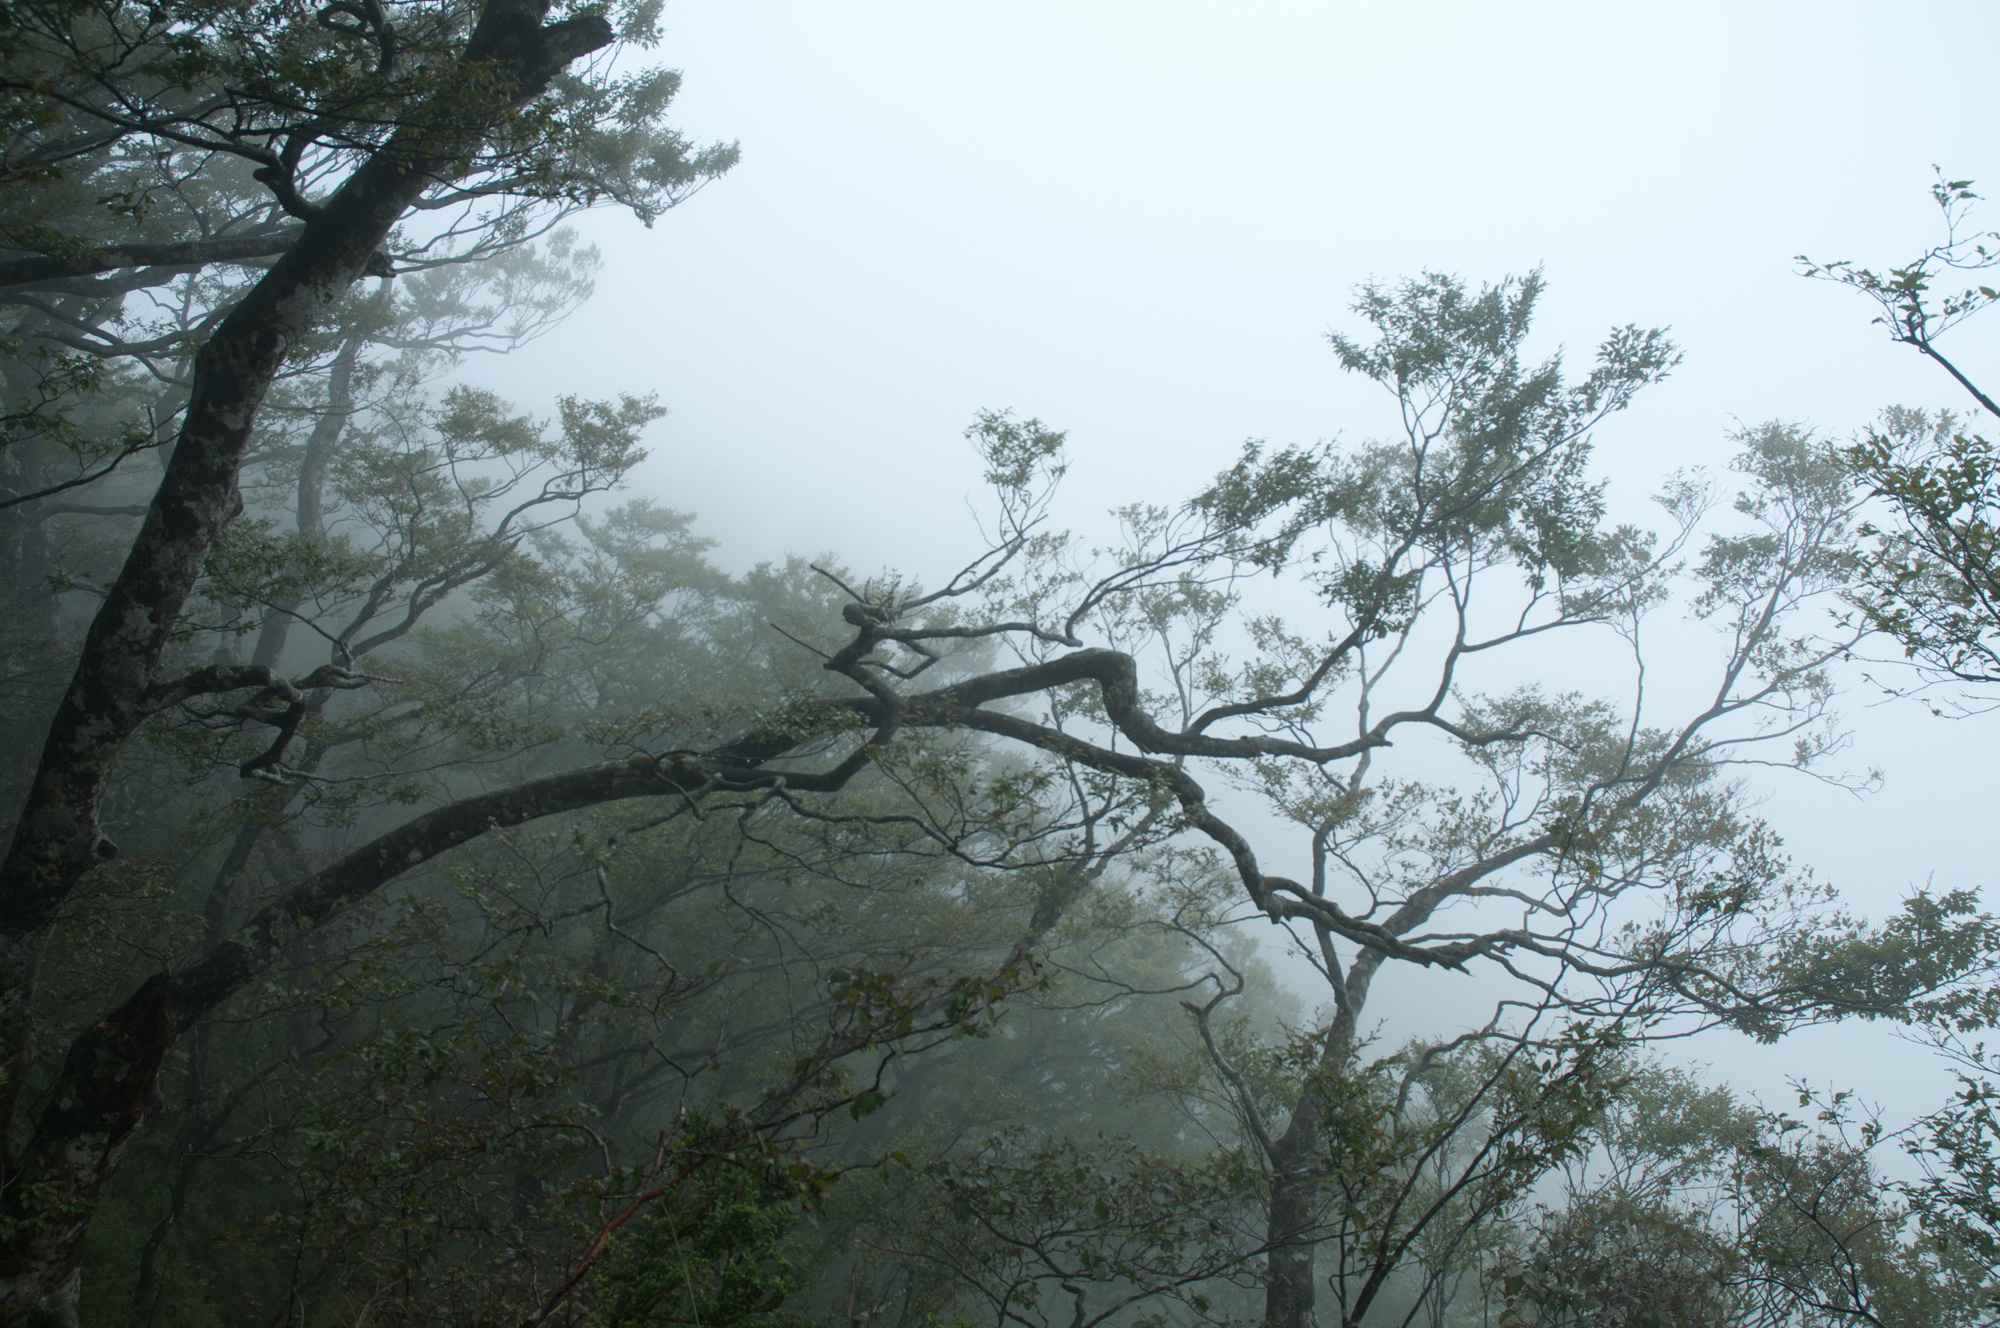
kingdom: Plantae
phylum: Tracheophyta
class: Magnoliopsida
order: Fagales
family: Fagaceae
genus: Fagus
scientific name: Fagus hayatae
